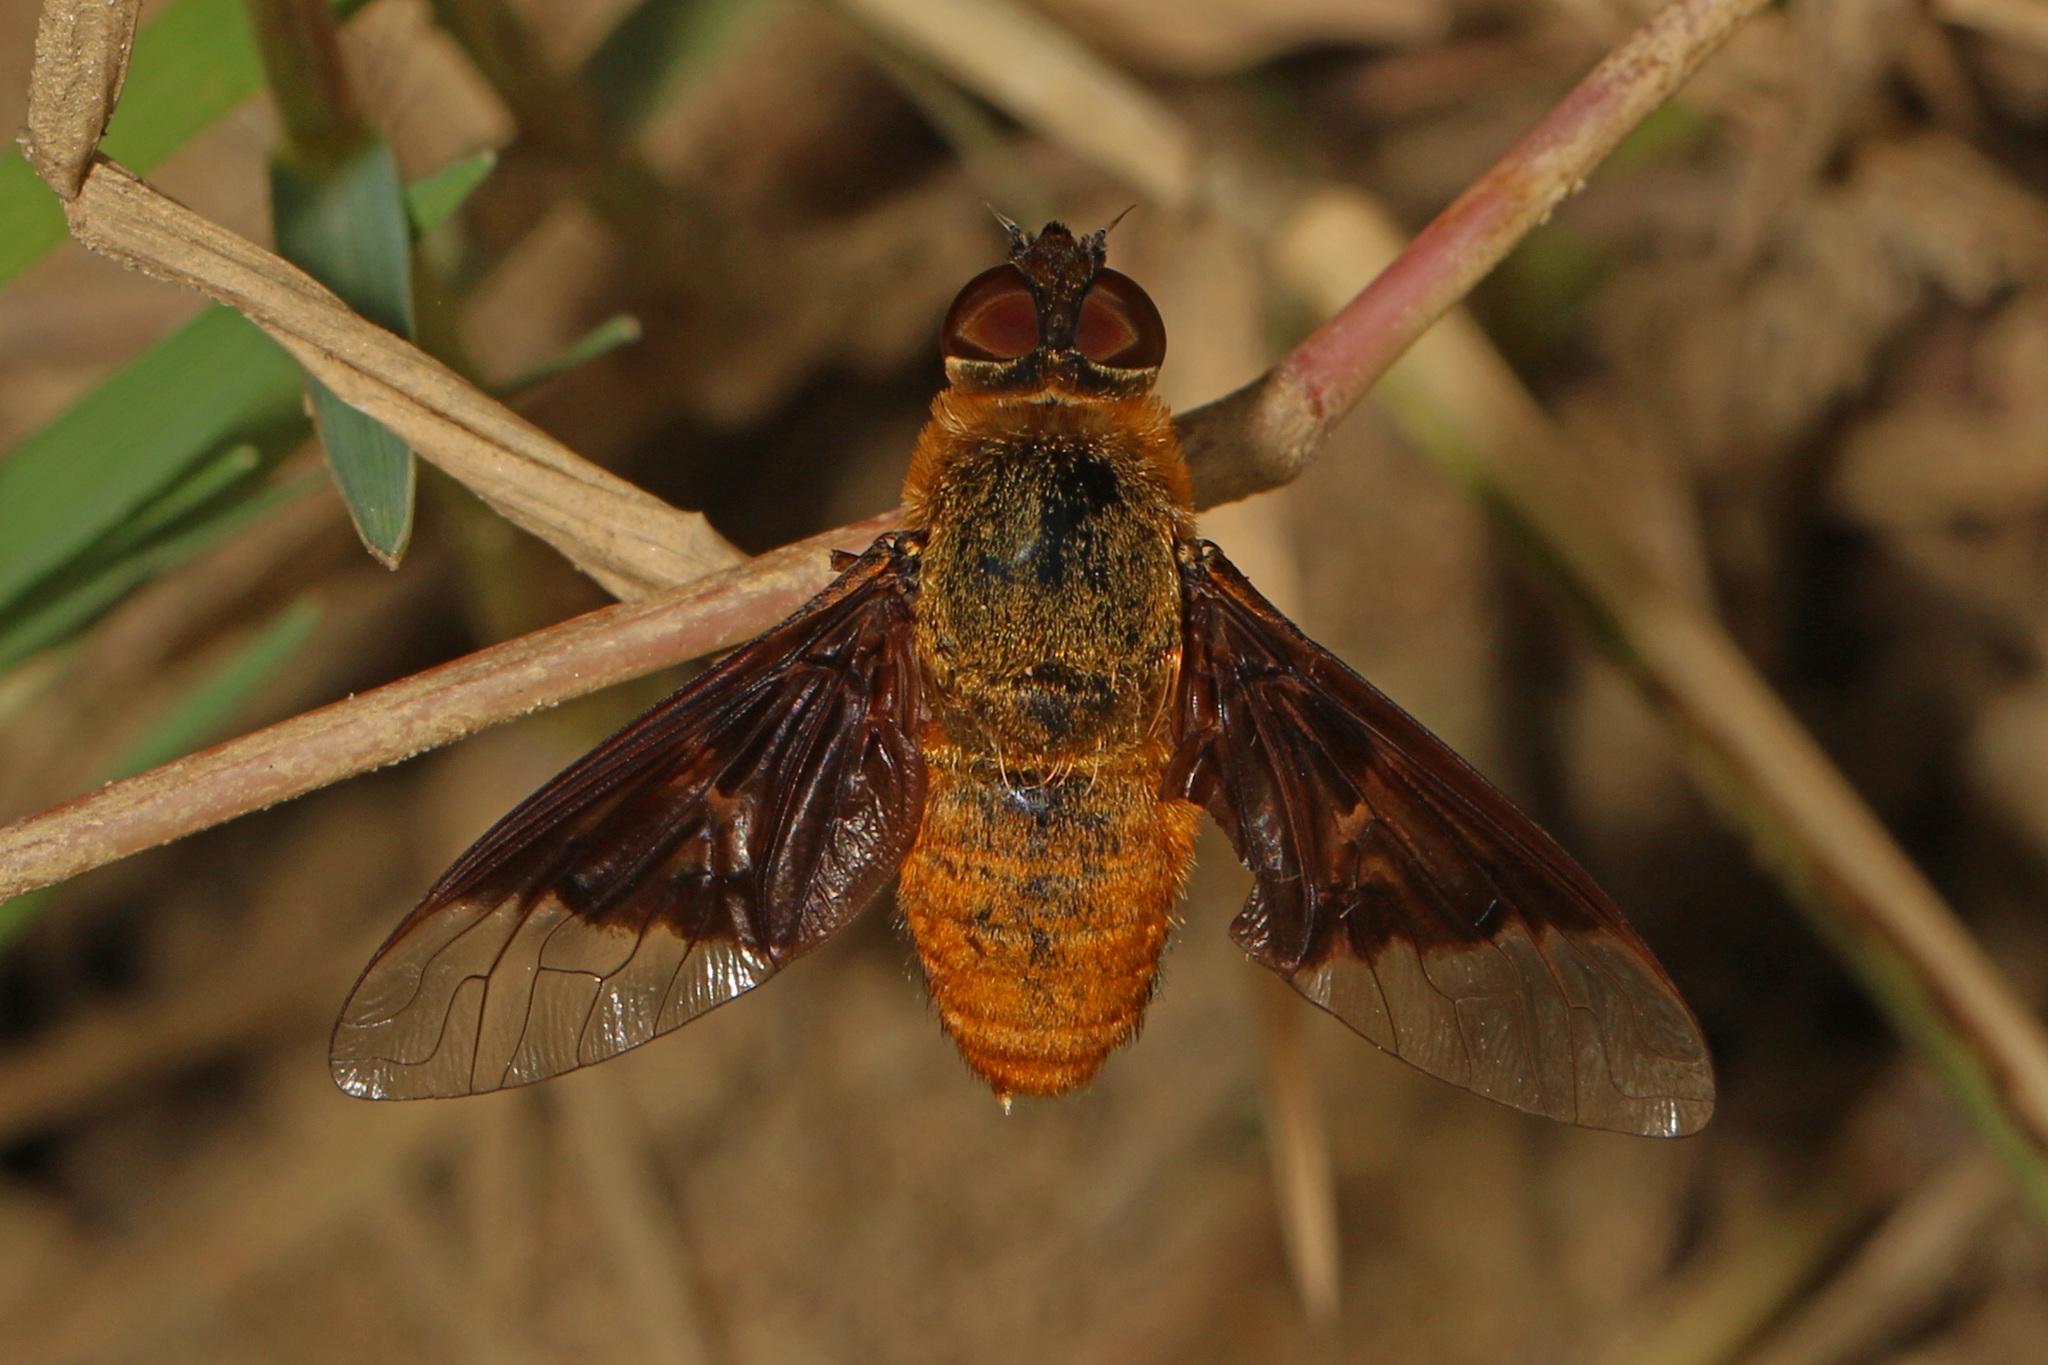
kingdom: Animalia
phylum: Arthropoda
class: Insecta
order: Diptera
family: Bombyliidae
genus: Chrysanthrax
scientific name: Chrysanthrax cypris
